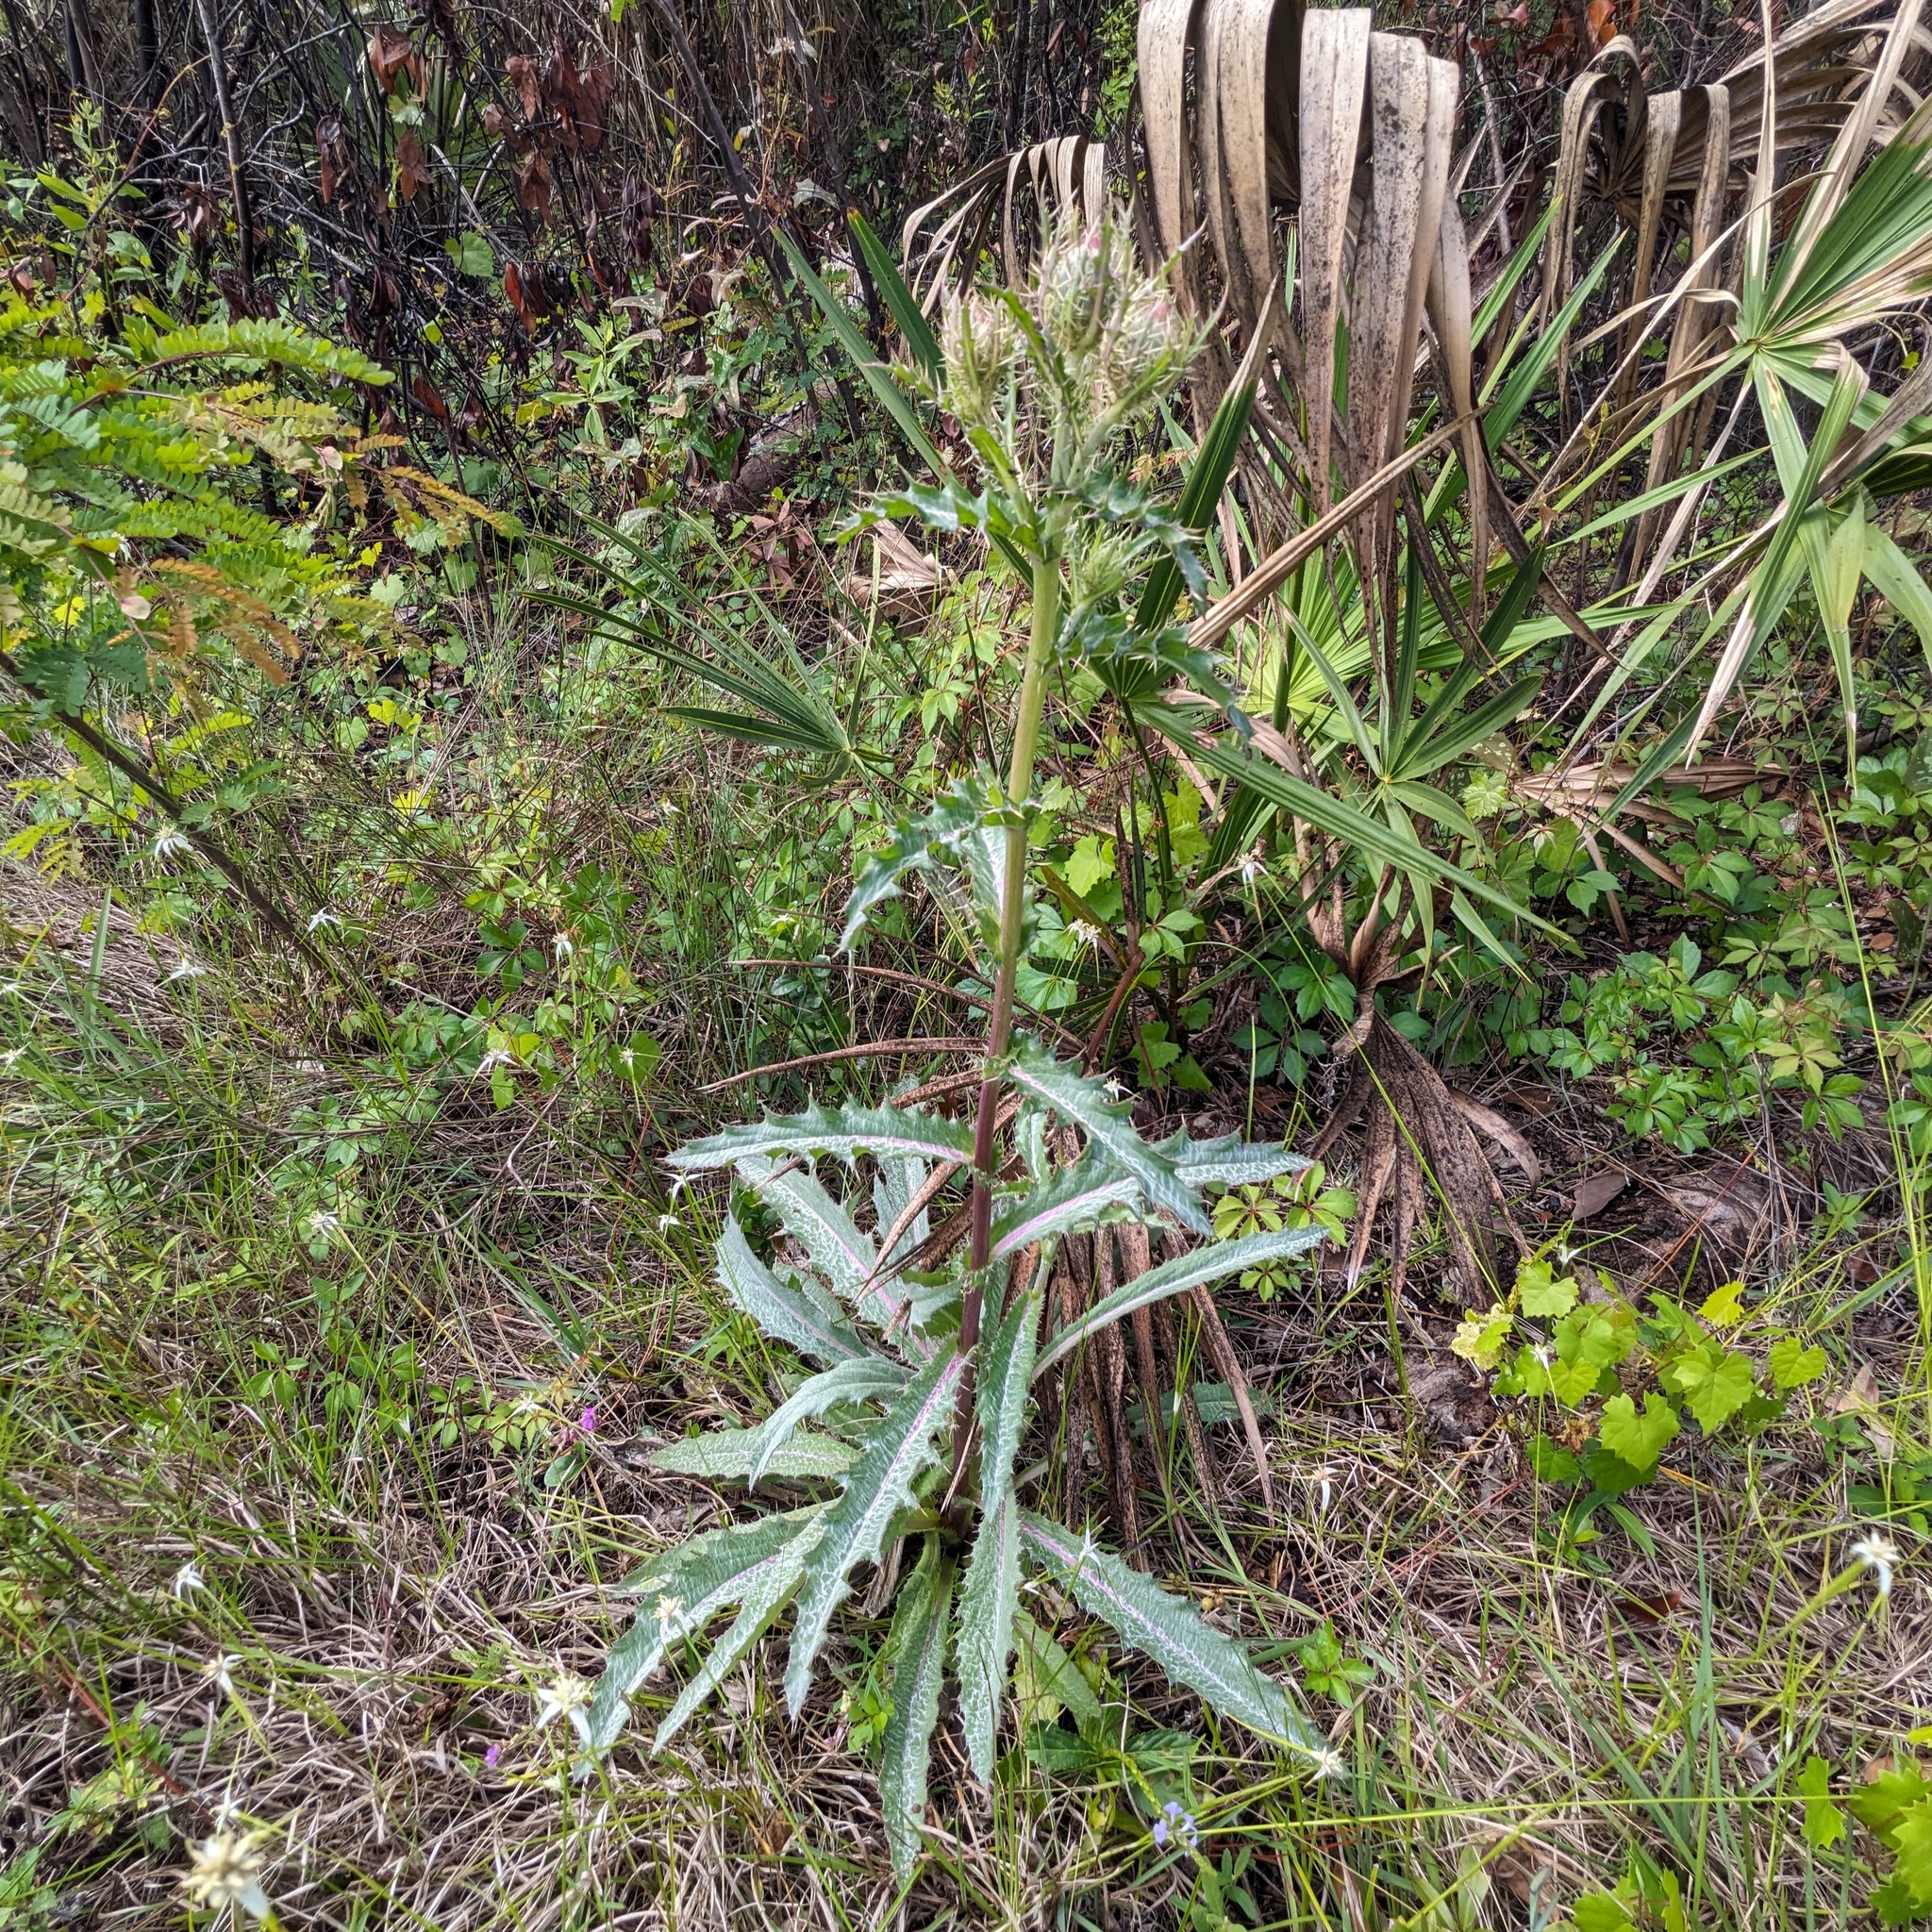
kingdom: Plantae
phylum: Tracheophyta
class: Magnoliopsida
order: Asterales
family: Asteraceae
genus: Cirsium
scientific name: Cirsium horridulum
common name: Bristly thistle
